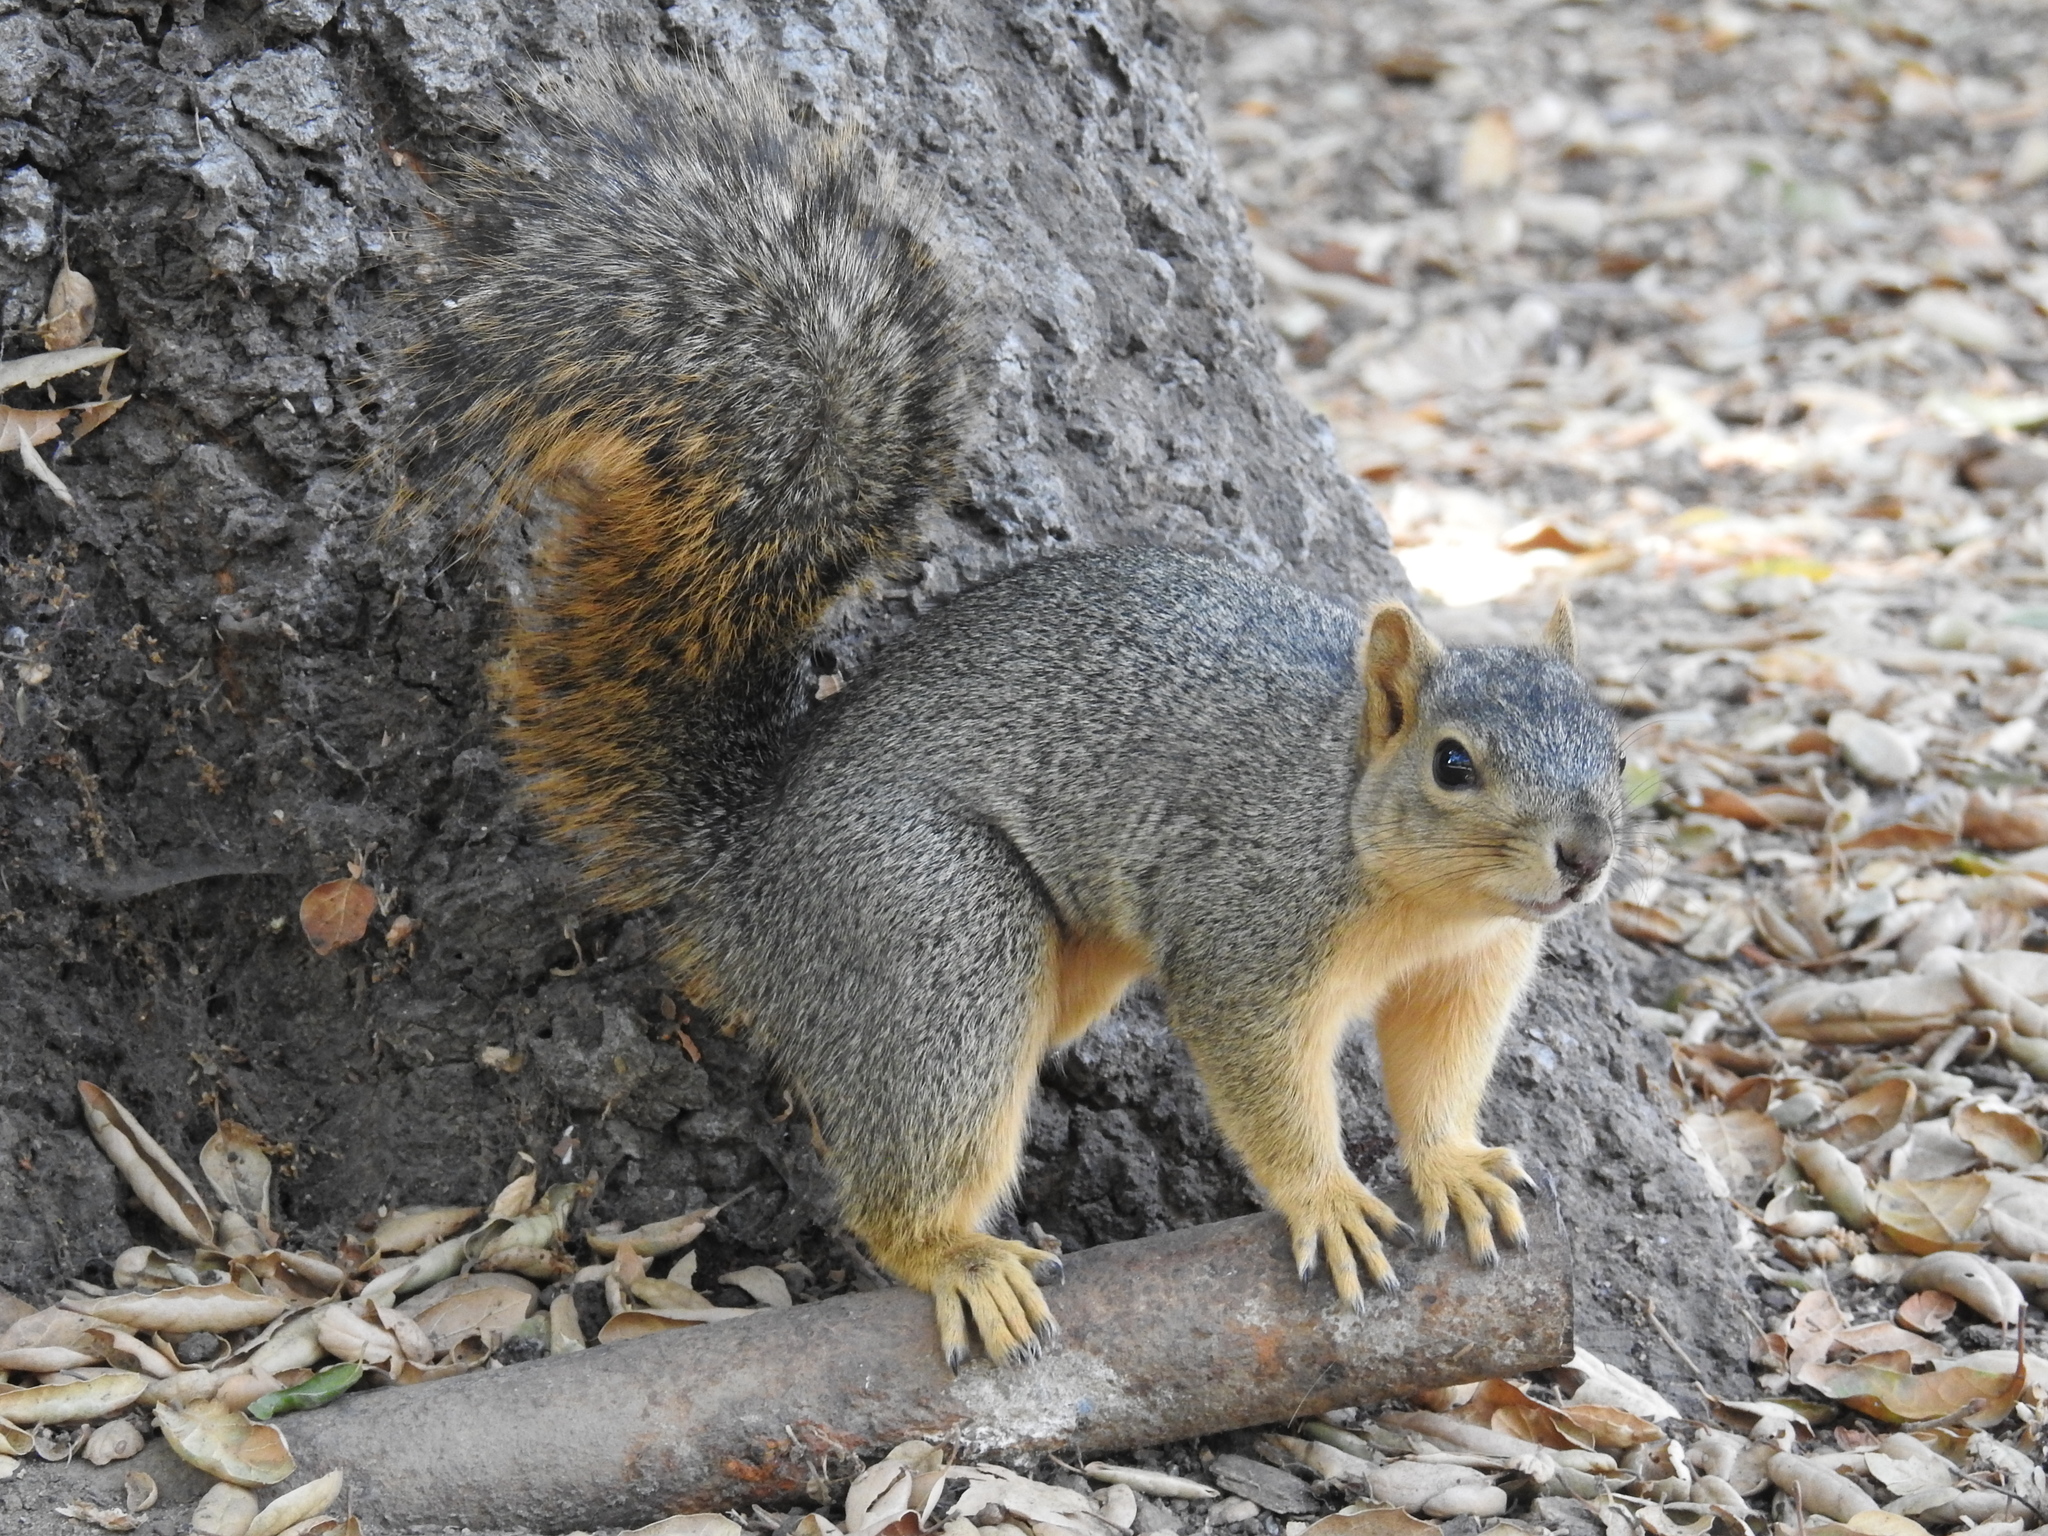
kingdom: Animalia
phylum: Chordata
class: Mammalia
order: Rodentia
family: Sciuridae
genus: Sciurus
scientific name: Sciurus niger
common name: Fox squirrel
